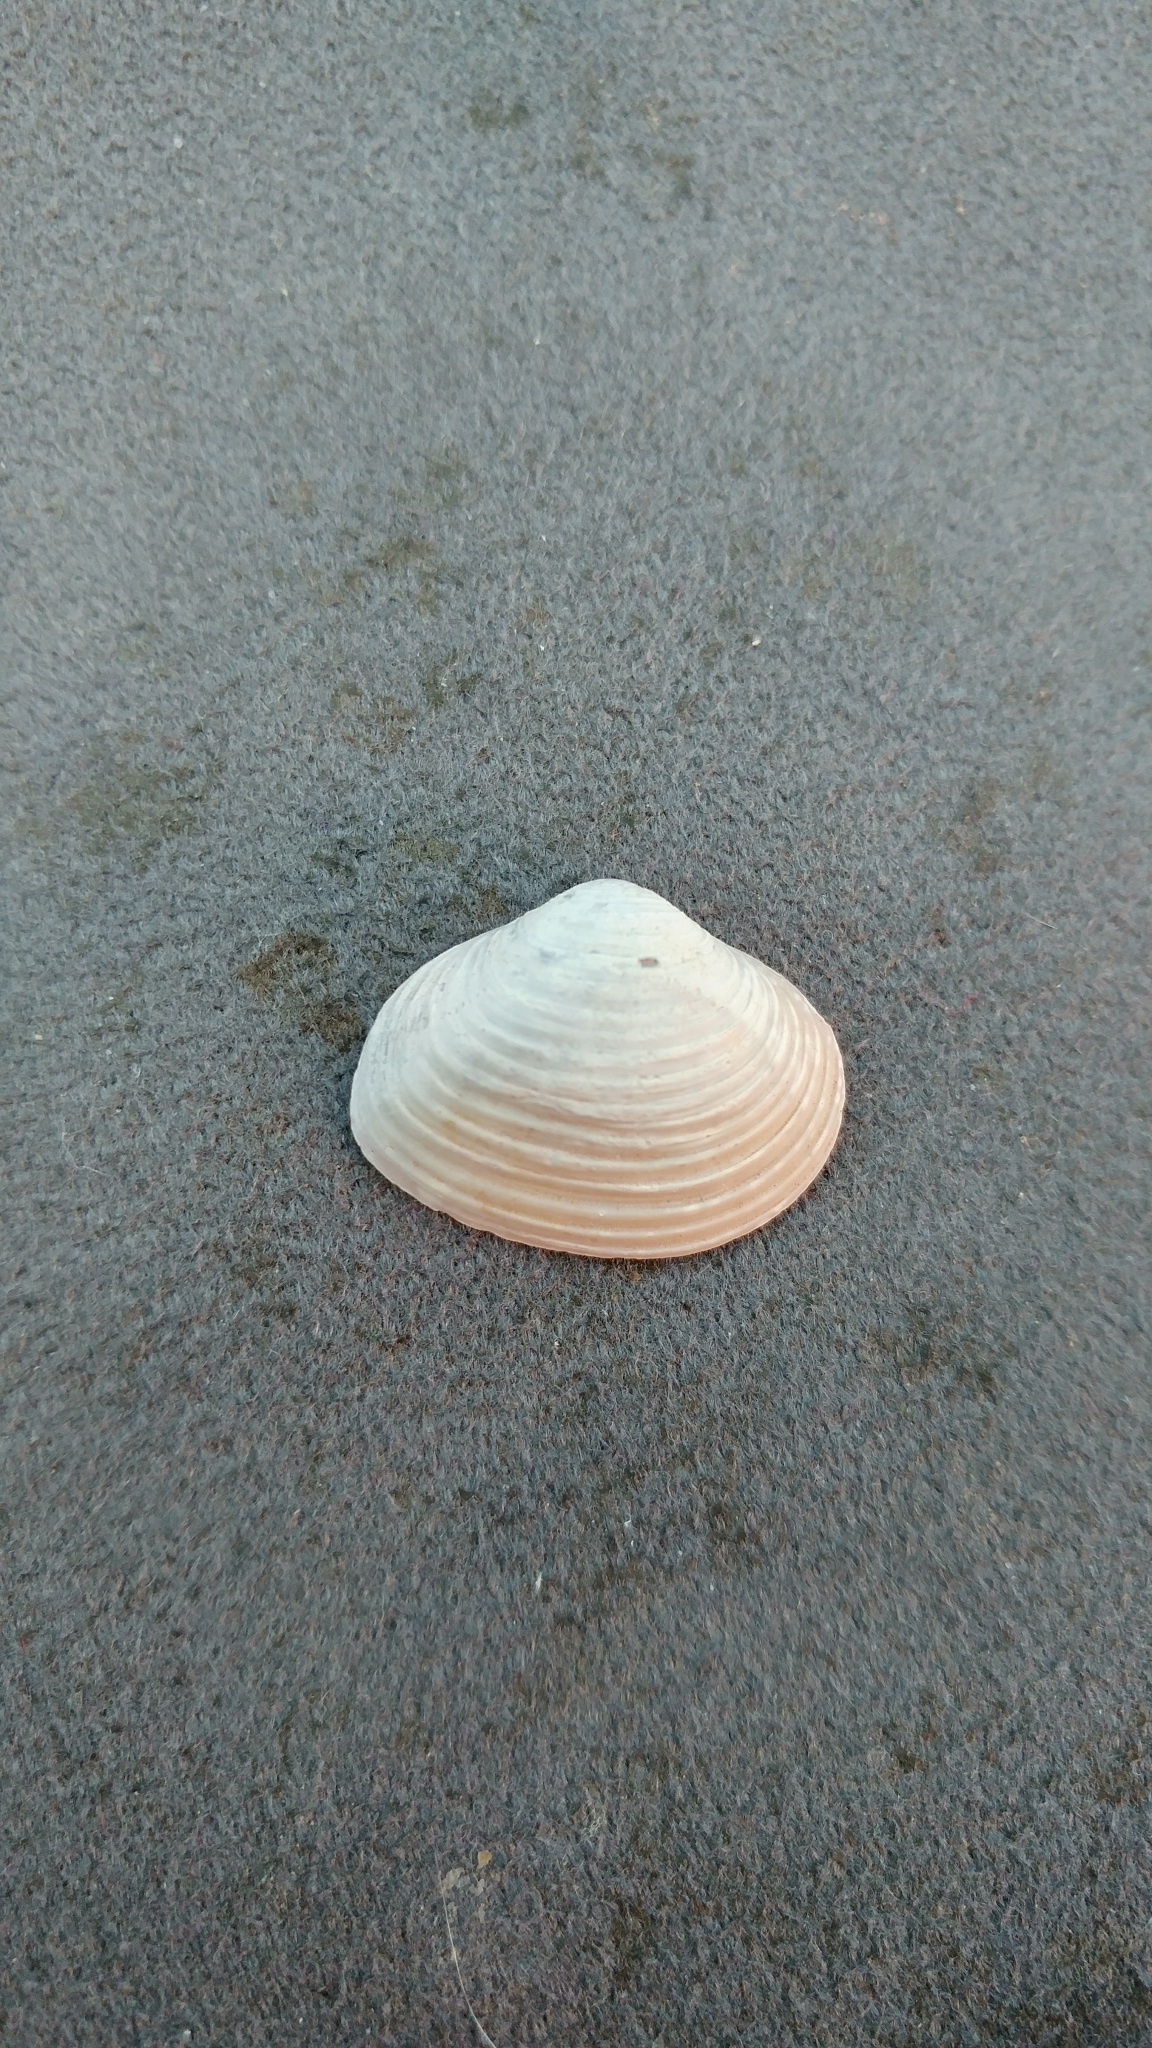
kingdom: Animalia
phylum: Mollusca
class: Bivalvia
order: Venerida
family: Cyrenidae
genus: Corbicula
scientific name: Corbicula fluminea
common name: Asian clam
